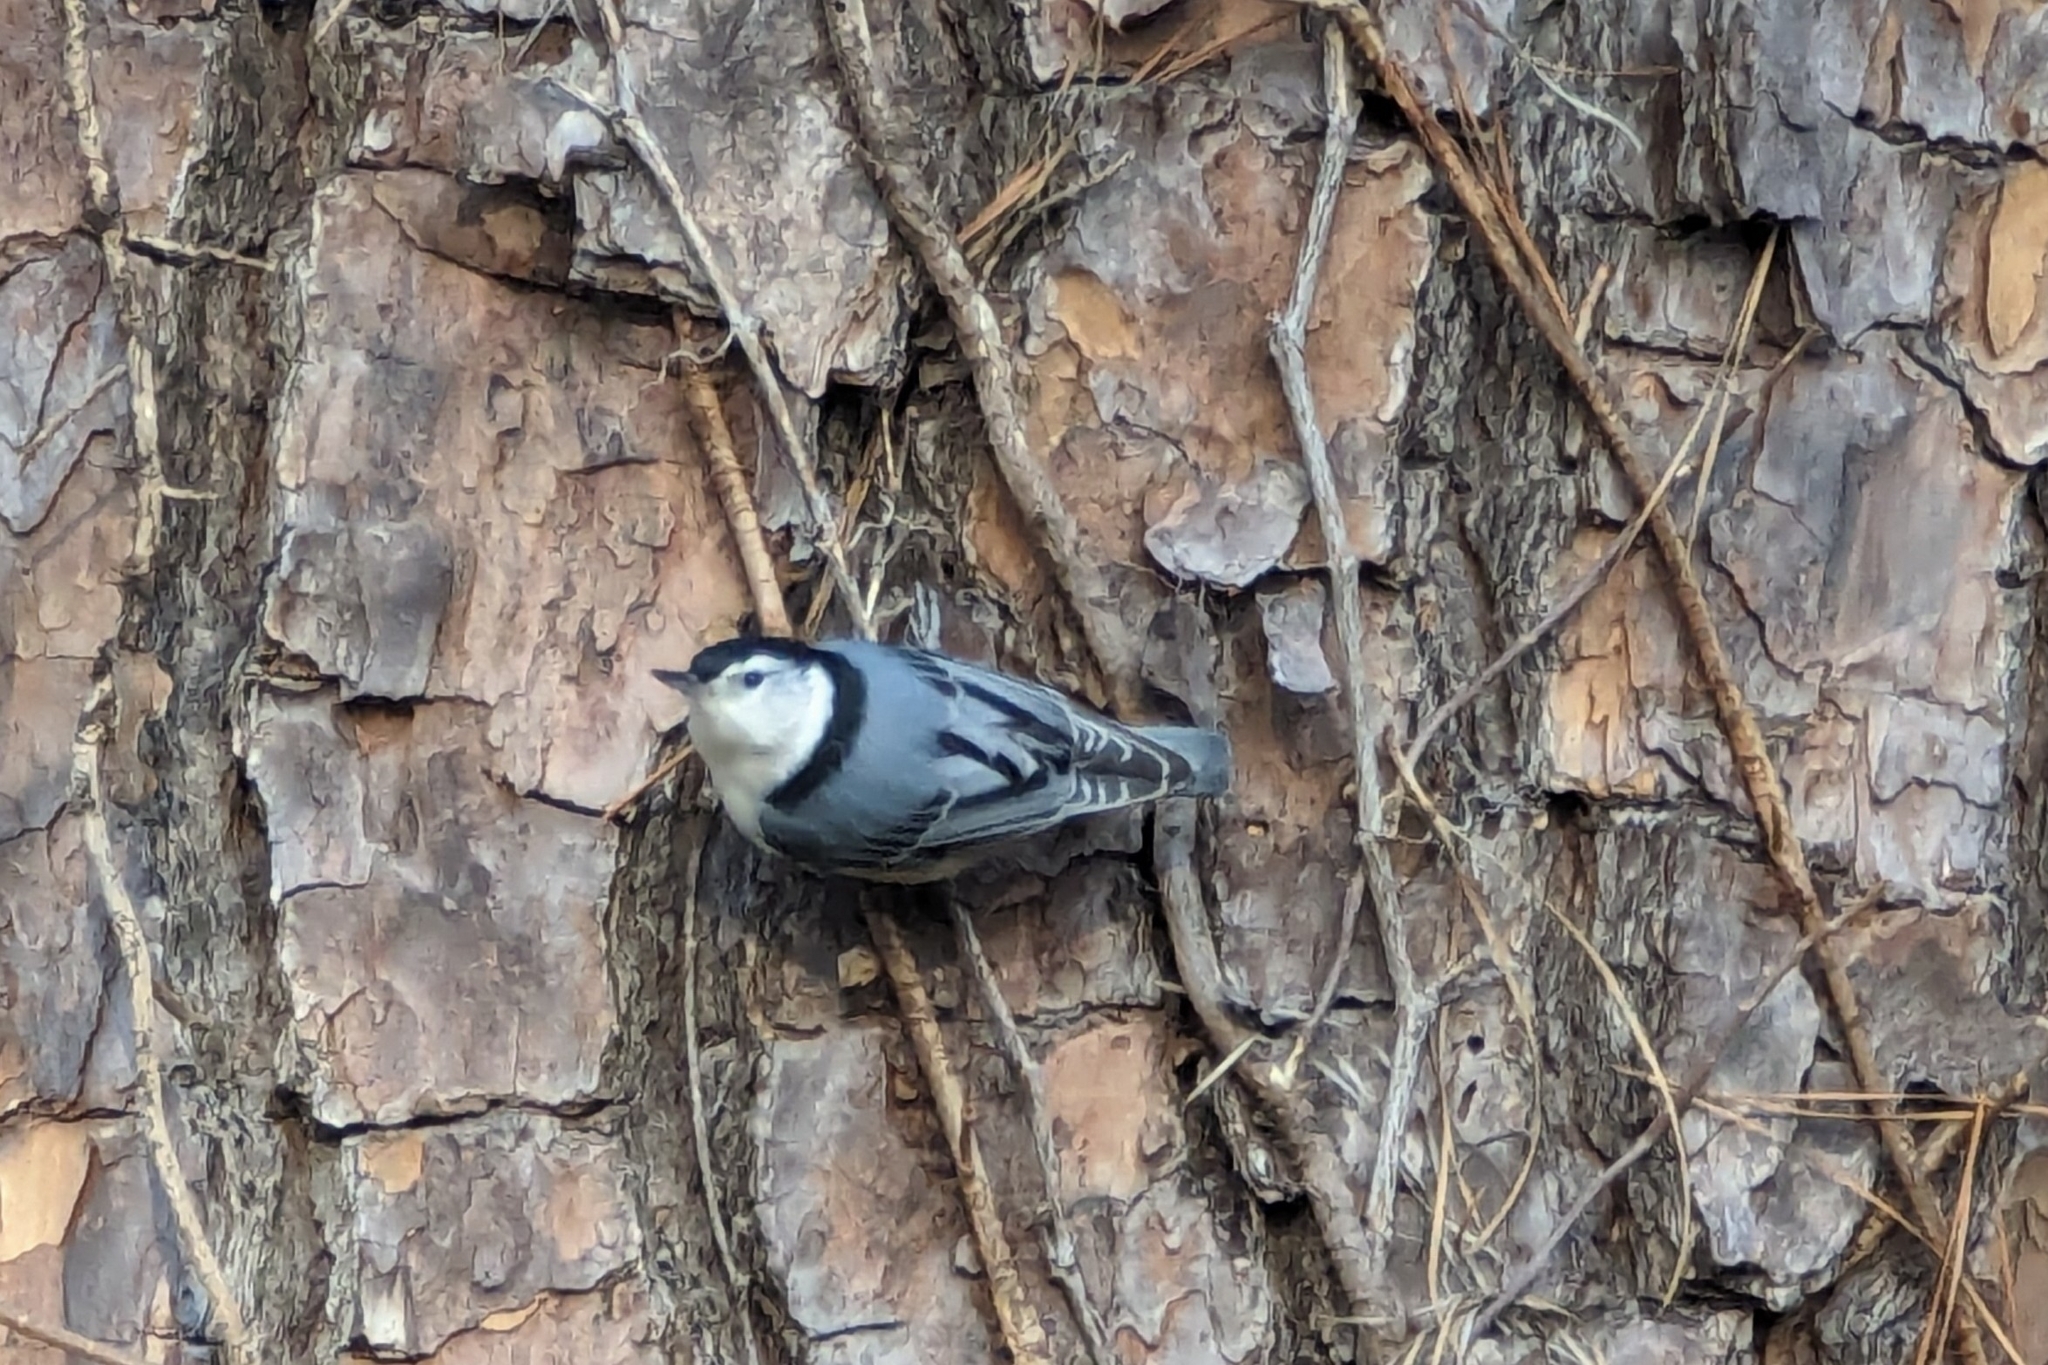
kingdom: Animalia
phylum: Chordata
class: Aves
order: Passeriformes
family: Sittidae
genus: Sitta
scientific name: Sitta carolinensis
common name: White-breasted nuthatch
